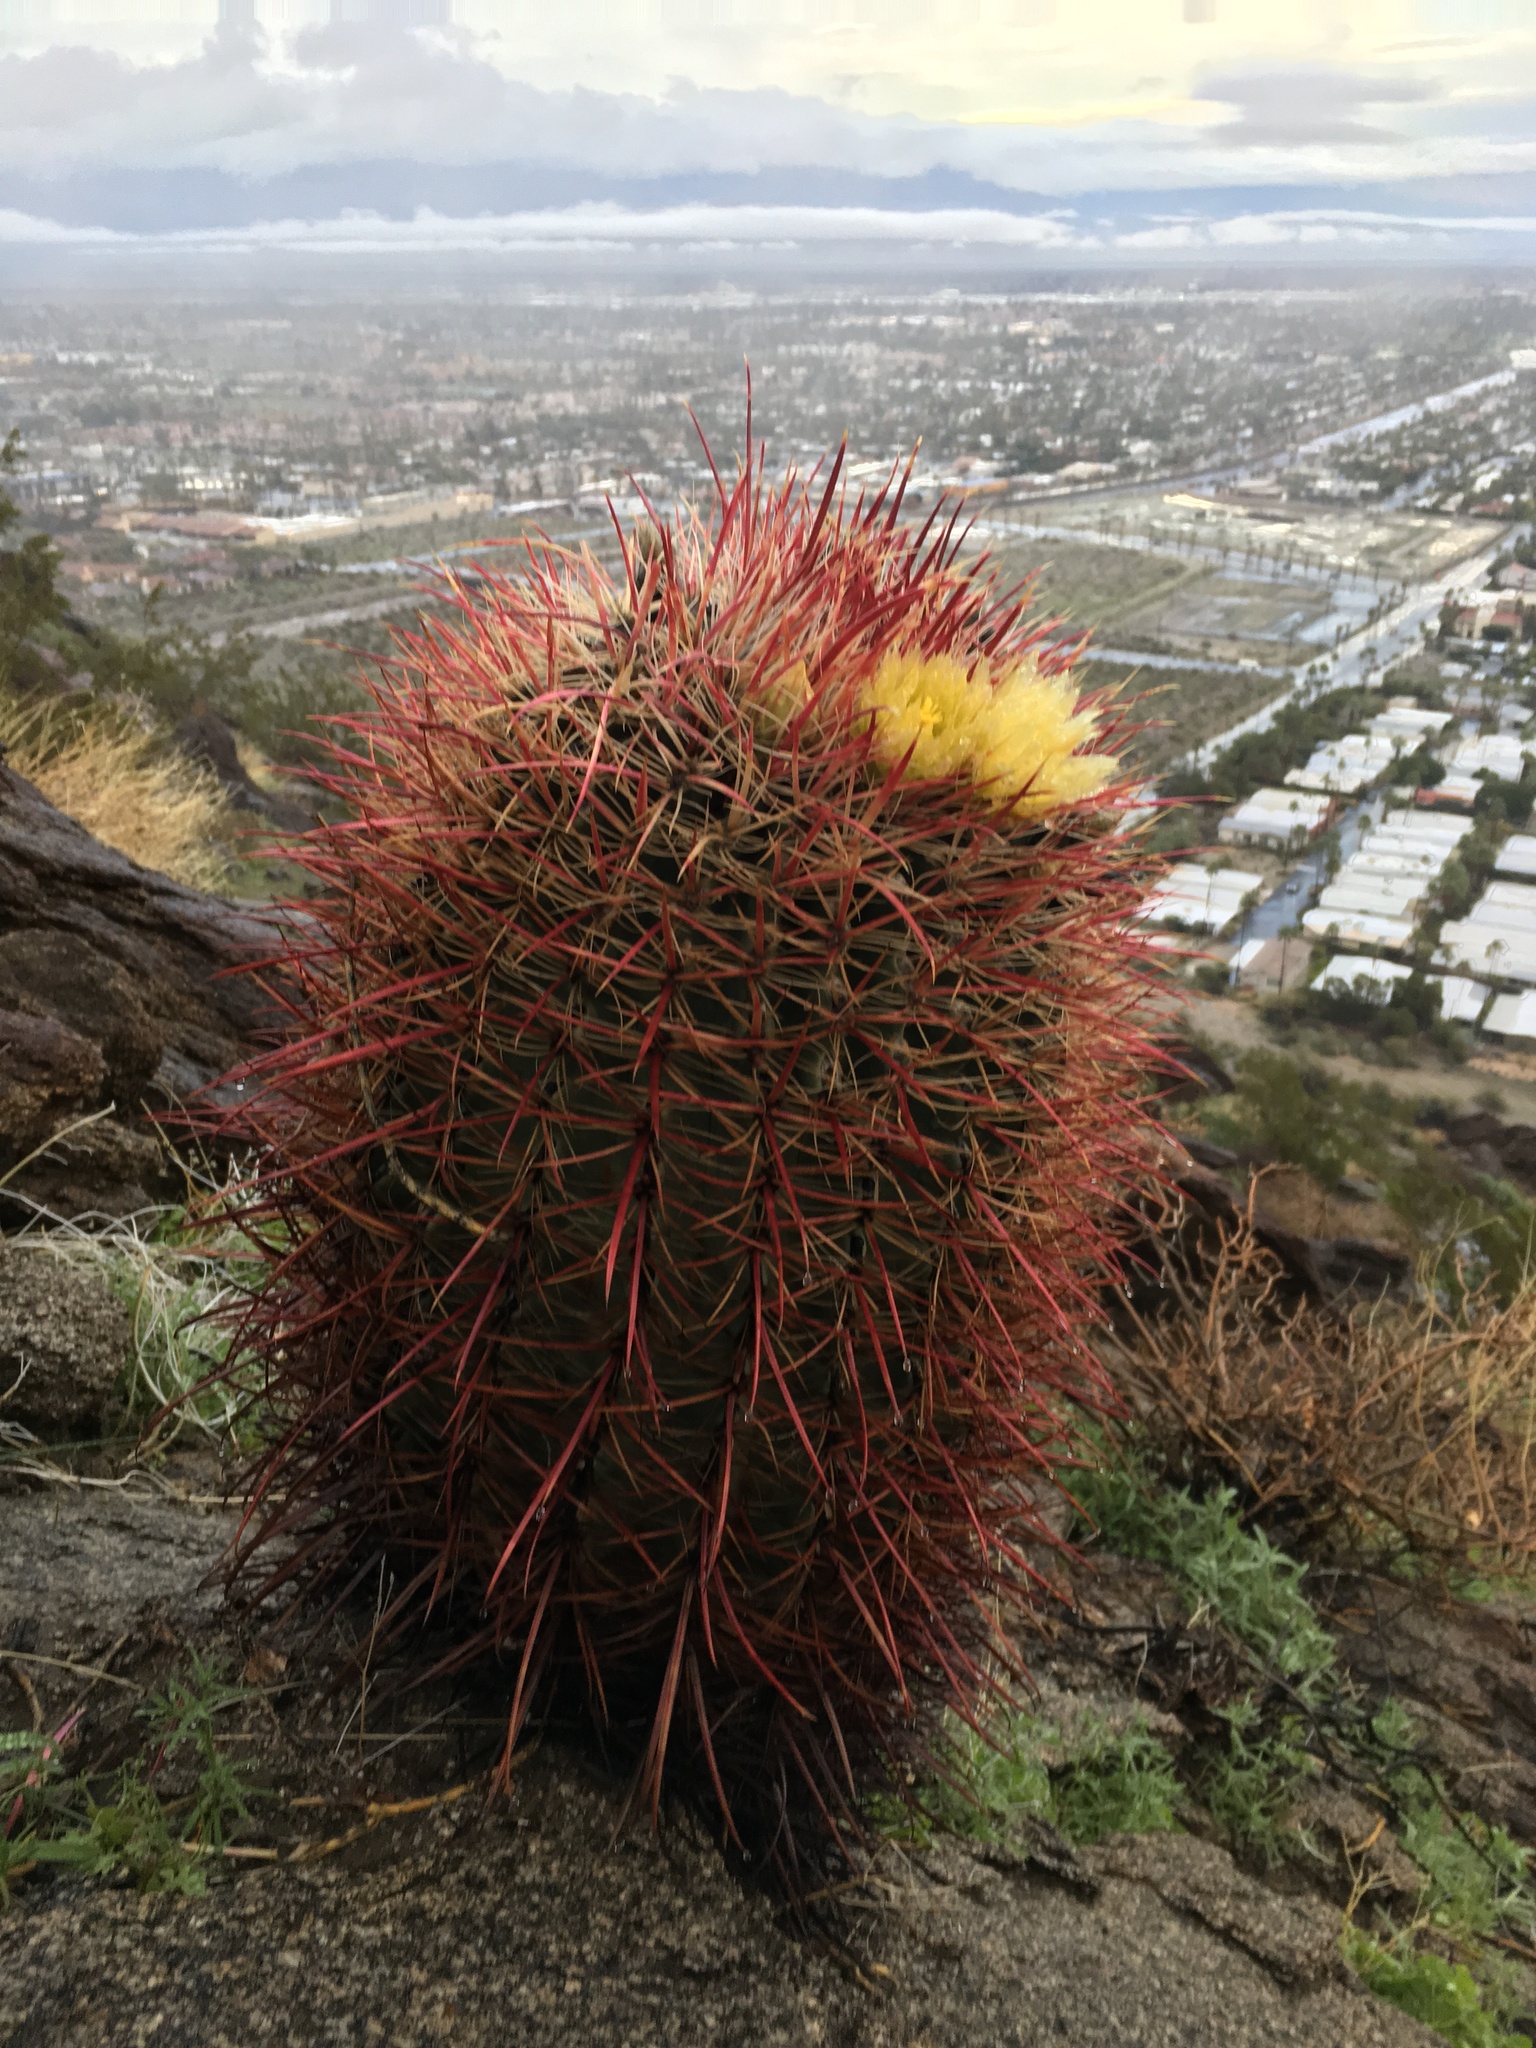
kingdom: Plantae
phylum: Tracheophyta
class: Magnoliopsida
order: Caryophyllales
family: Cactaceae
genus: Ferocactus
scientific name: Ferocactus cylindraceus
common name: California barrel cactus
